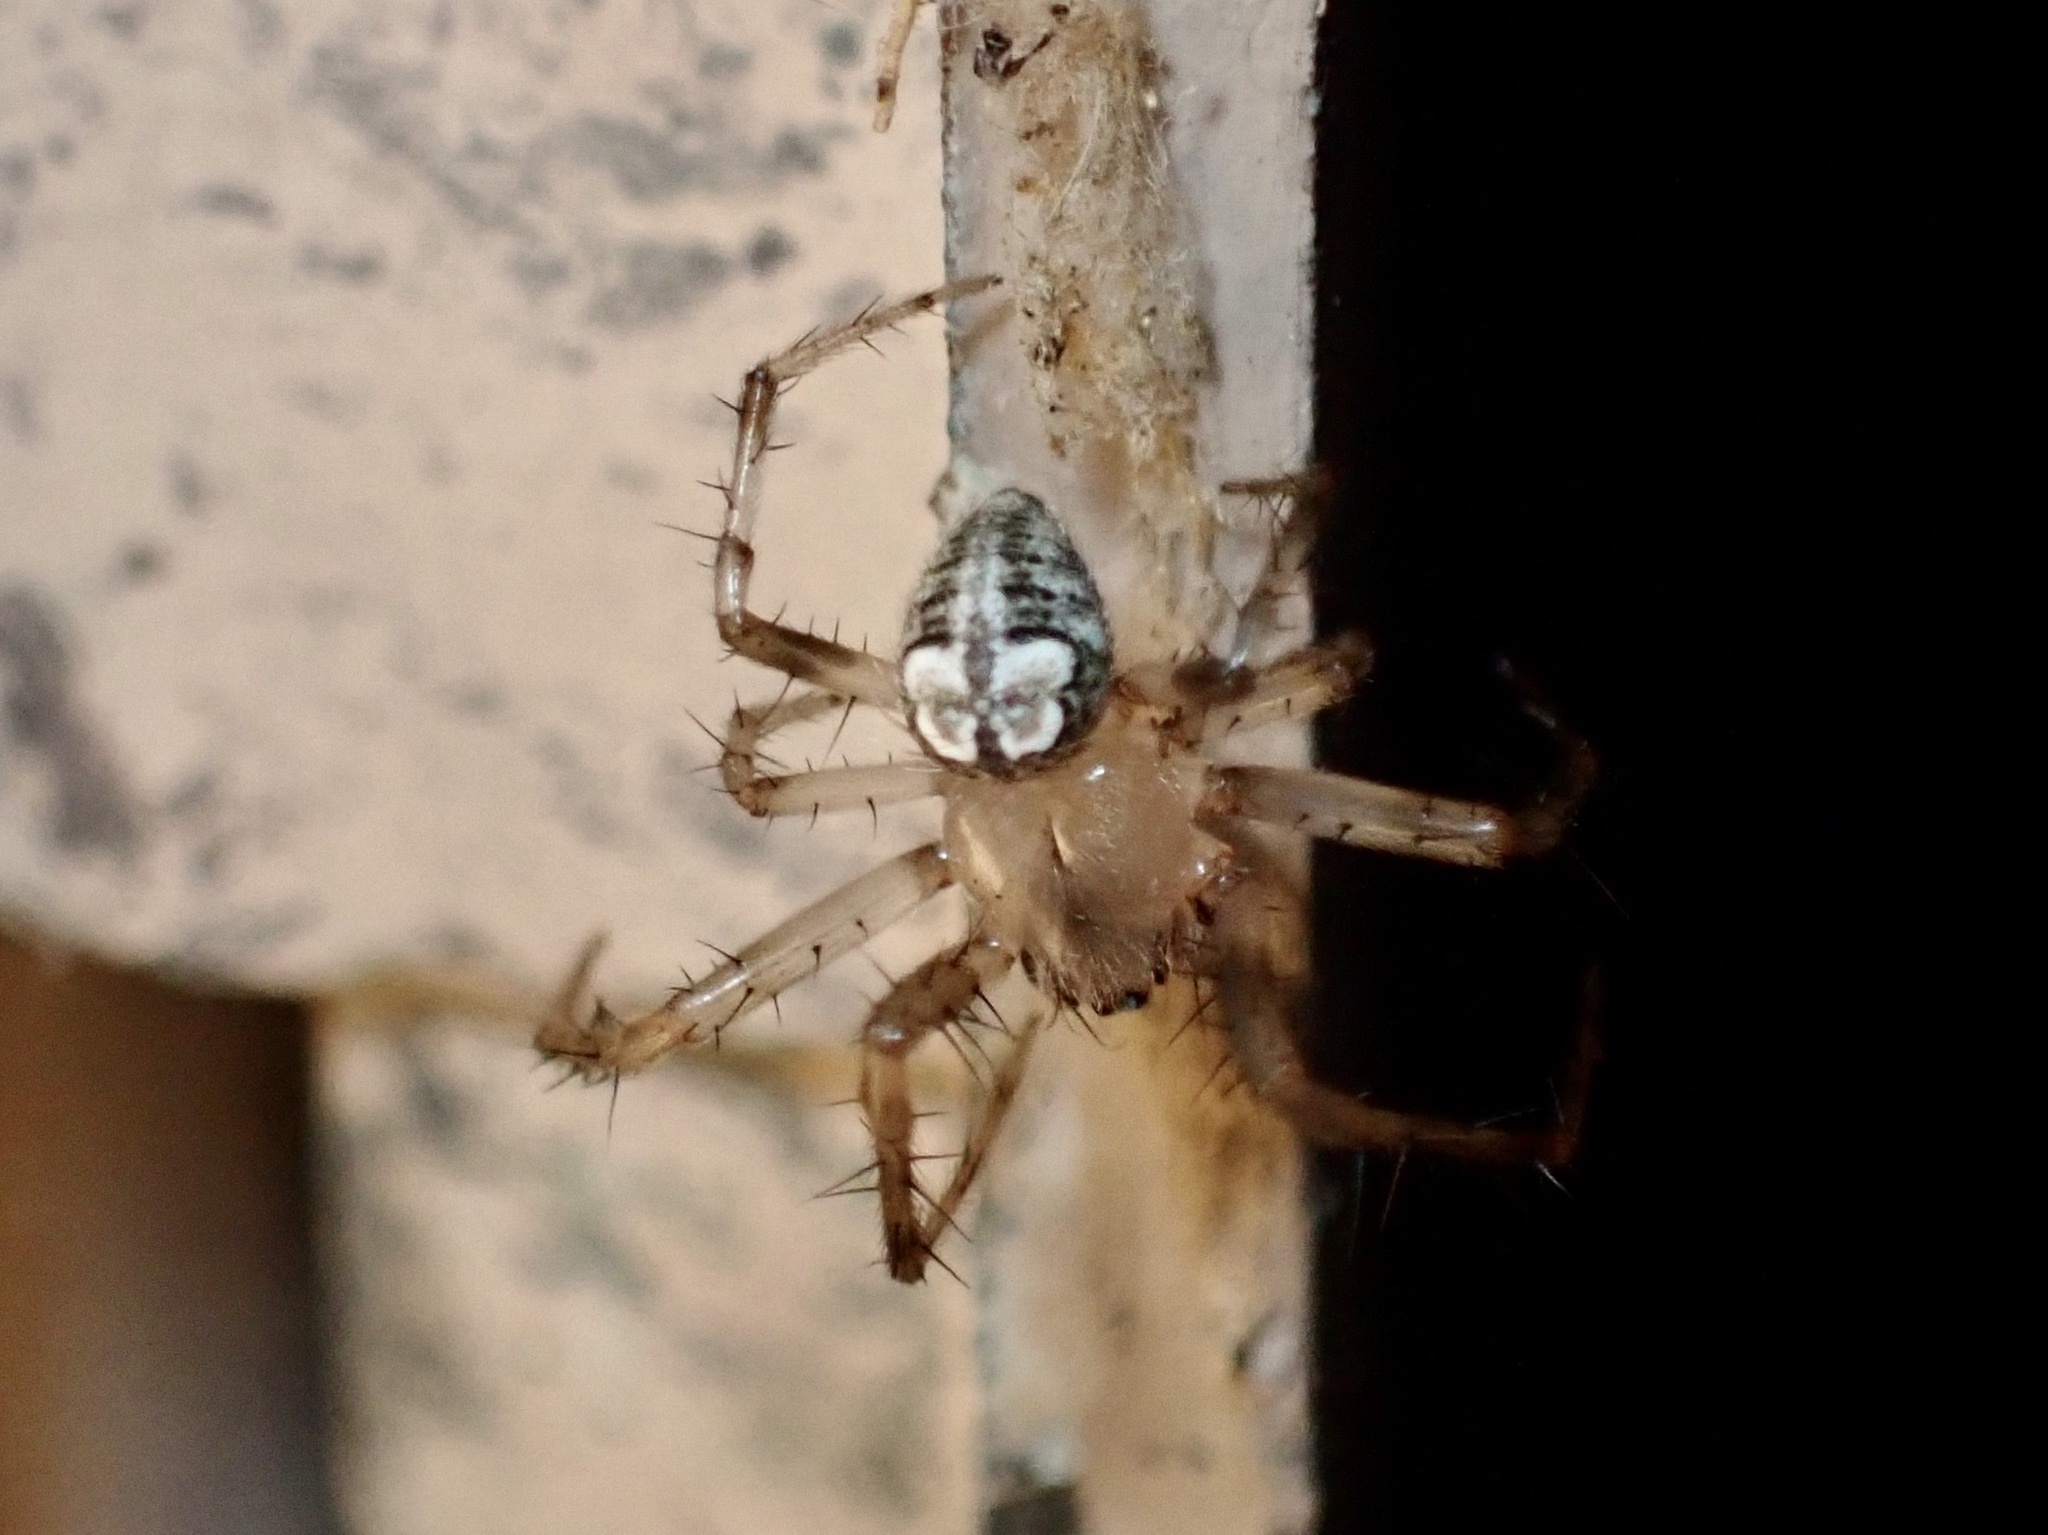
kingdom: Animalia
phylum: Arthropoda
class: Arachnida
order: Araneae
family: Araneidae
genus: Araneus
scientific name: Araneus pegnia
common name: Orb weavers
